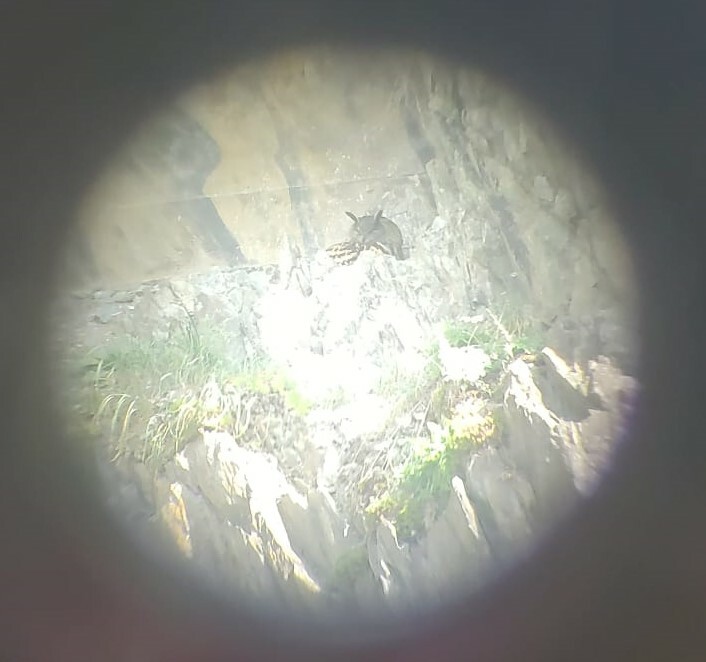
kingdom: Animalia
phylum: Chordata
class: Aves
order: Strigiformes
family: Strigidae
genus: Bubo
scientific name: Bubo bubo
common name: Eurasian eagle-owl
